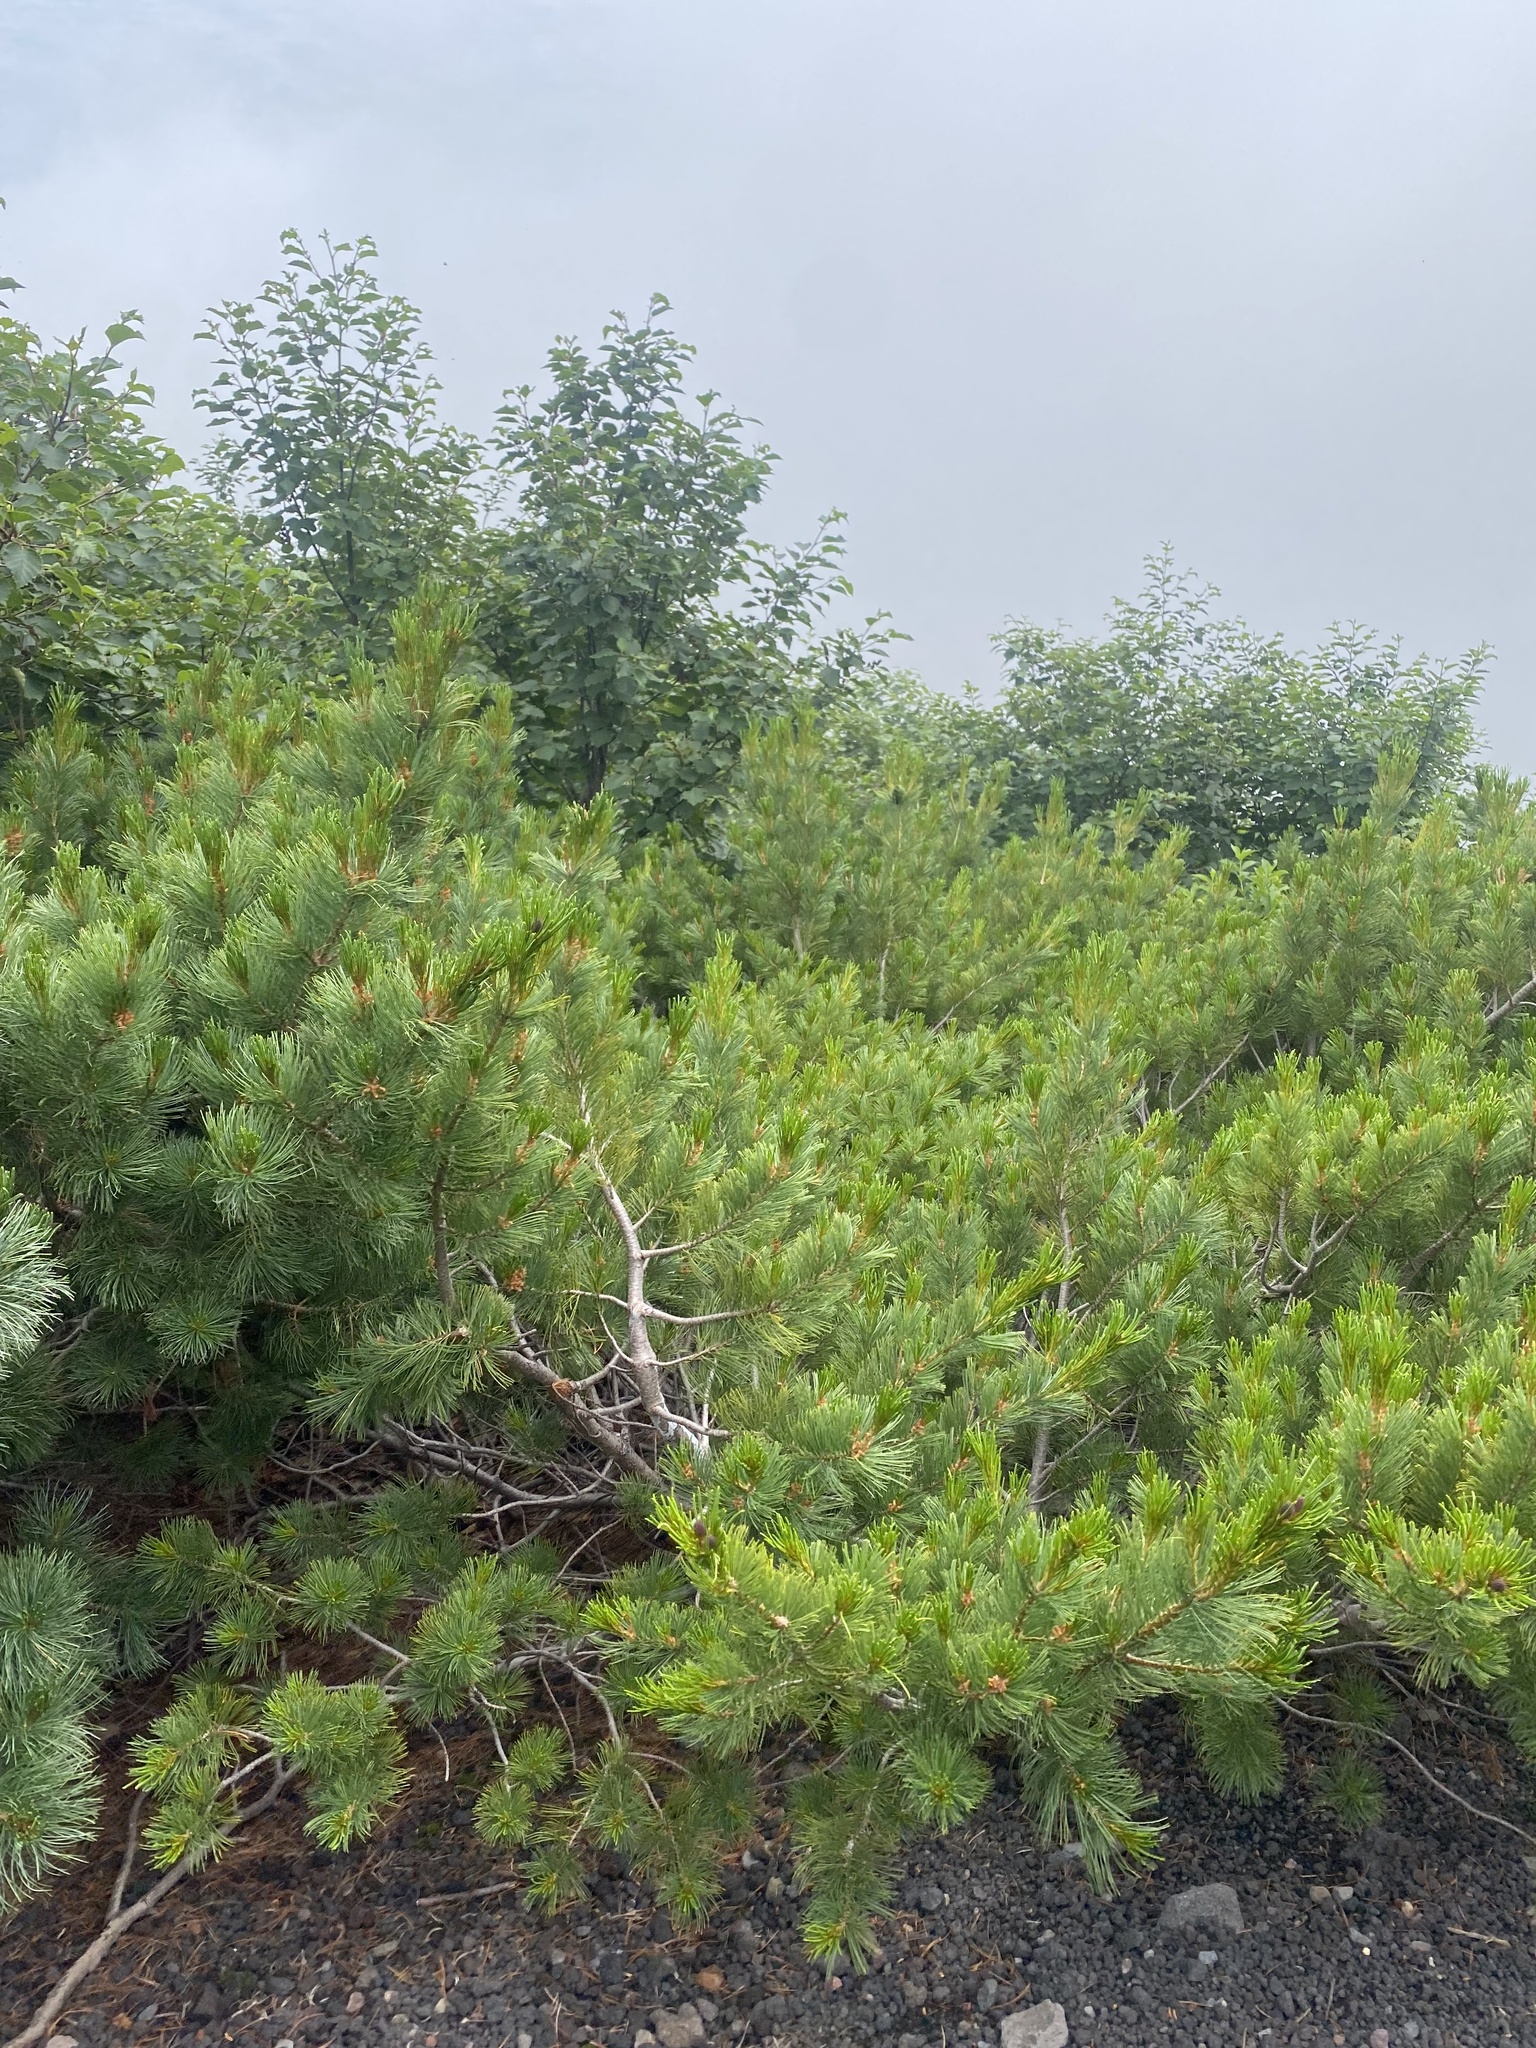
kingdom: Plantae
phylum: Tracheophyta
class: Pinopsida
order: Pinales
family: Pinaceae
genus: Pinus
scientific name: Pinus pumila
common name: Dwarf siberian pine
